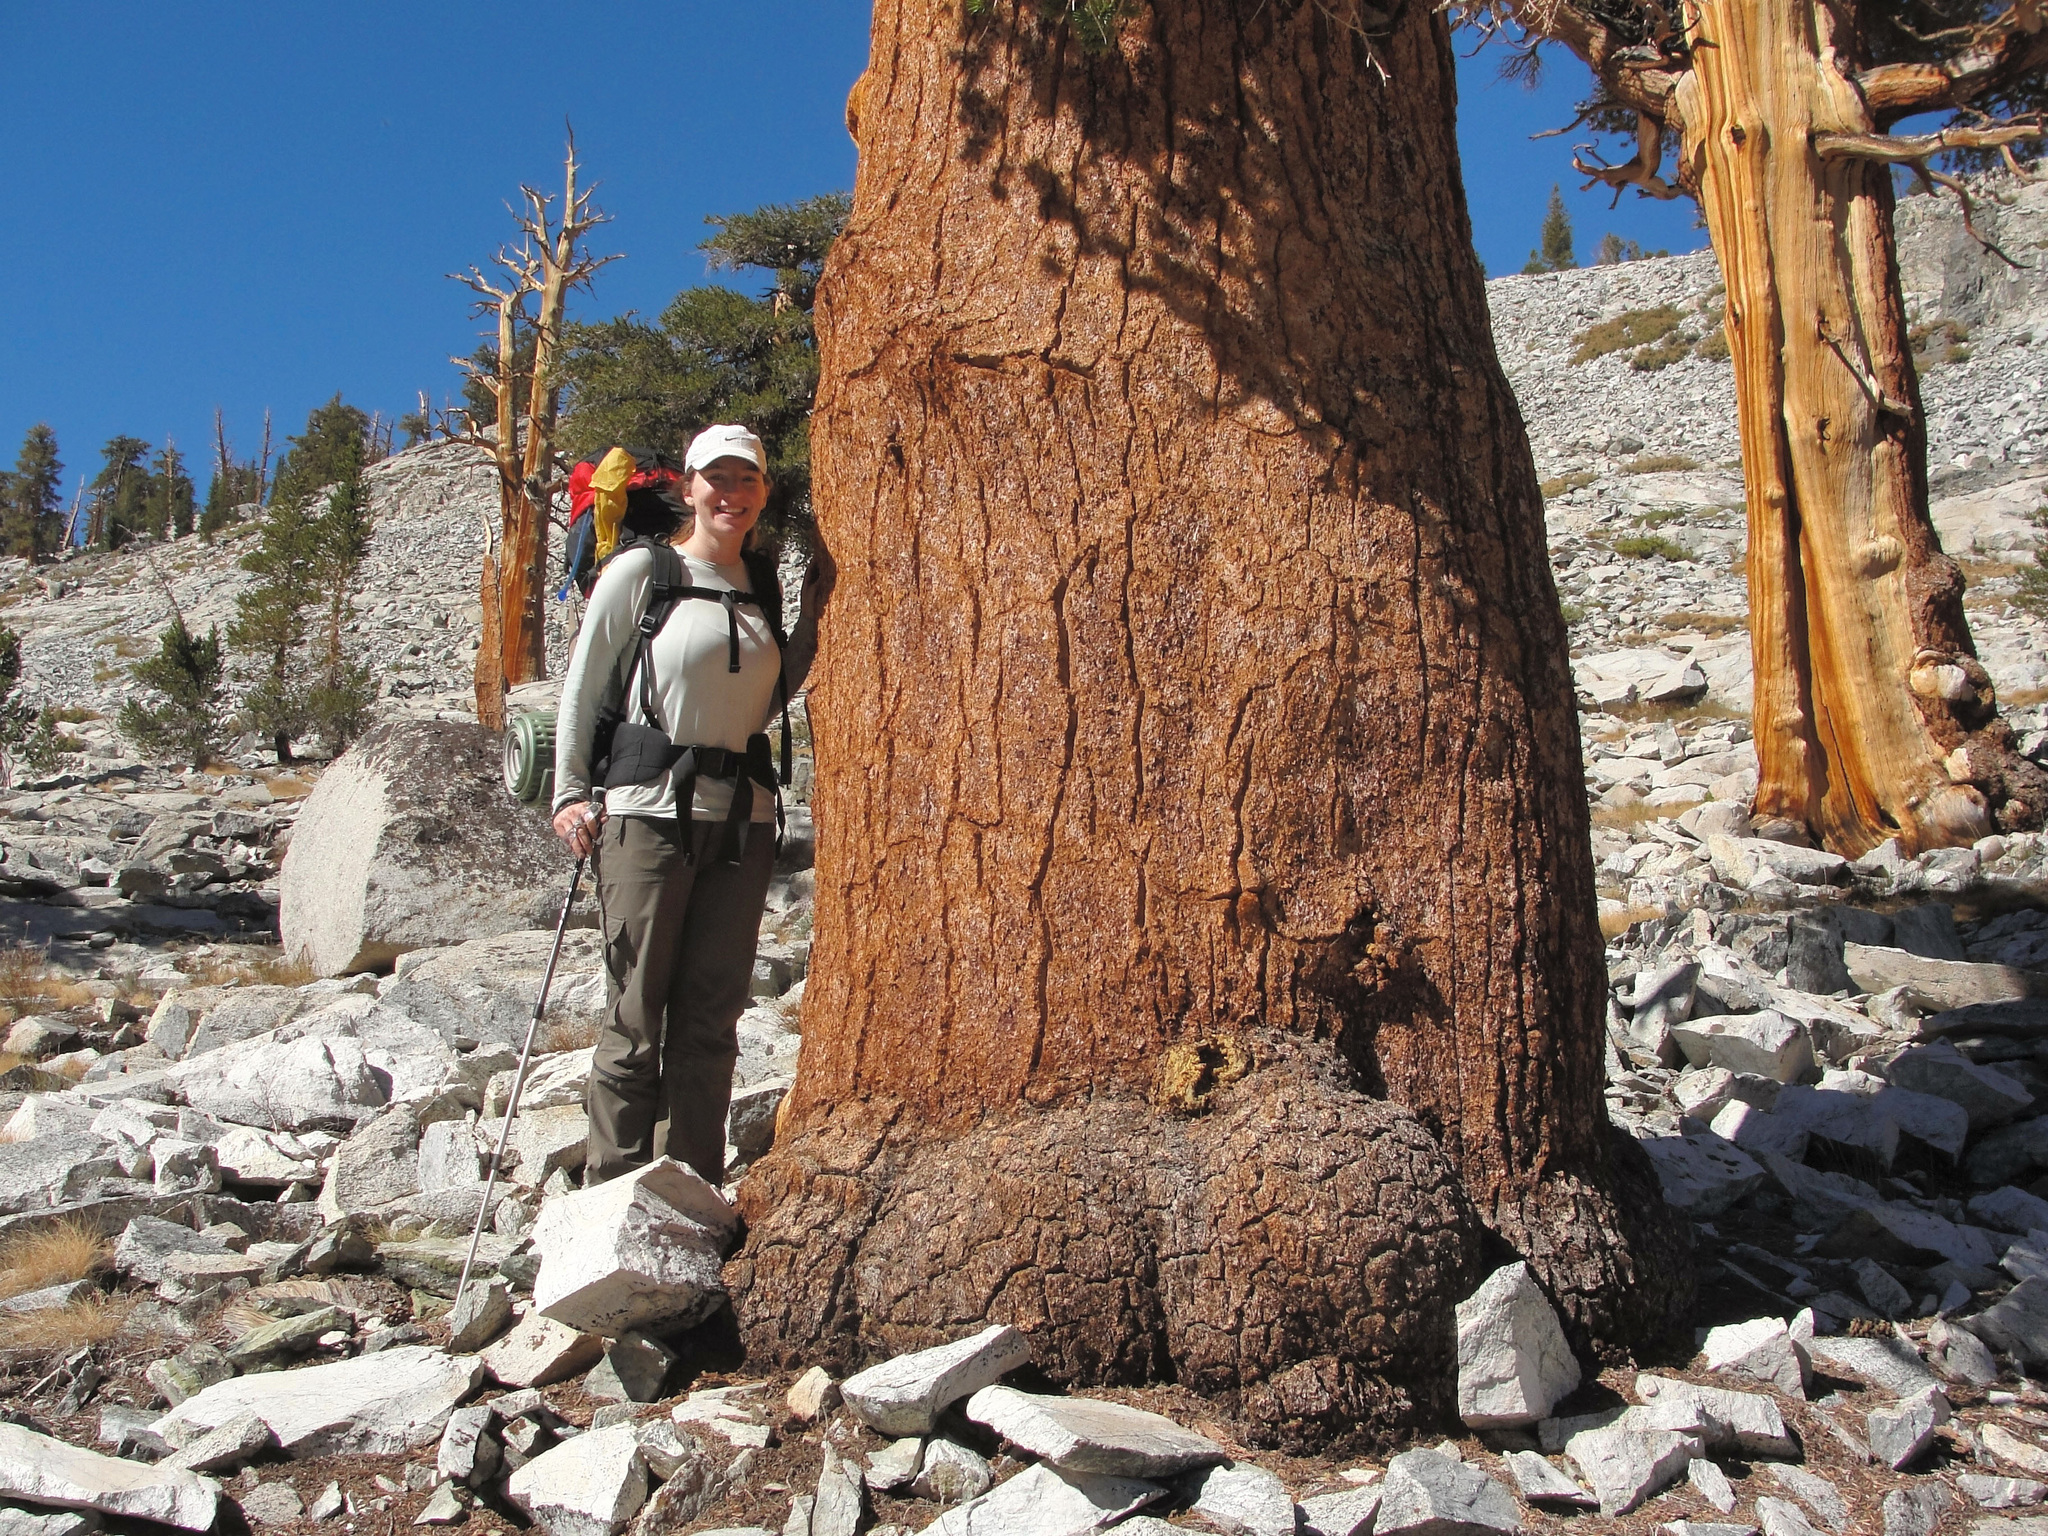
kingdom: Plantae
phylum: Tracheophyta
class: Pinopsida
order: Pinales
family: Pinaceae
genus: Pinus
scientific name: Pinus balfouriana
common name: Foxtail pine
